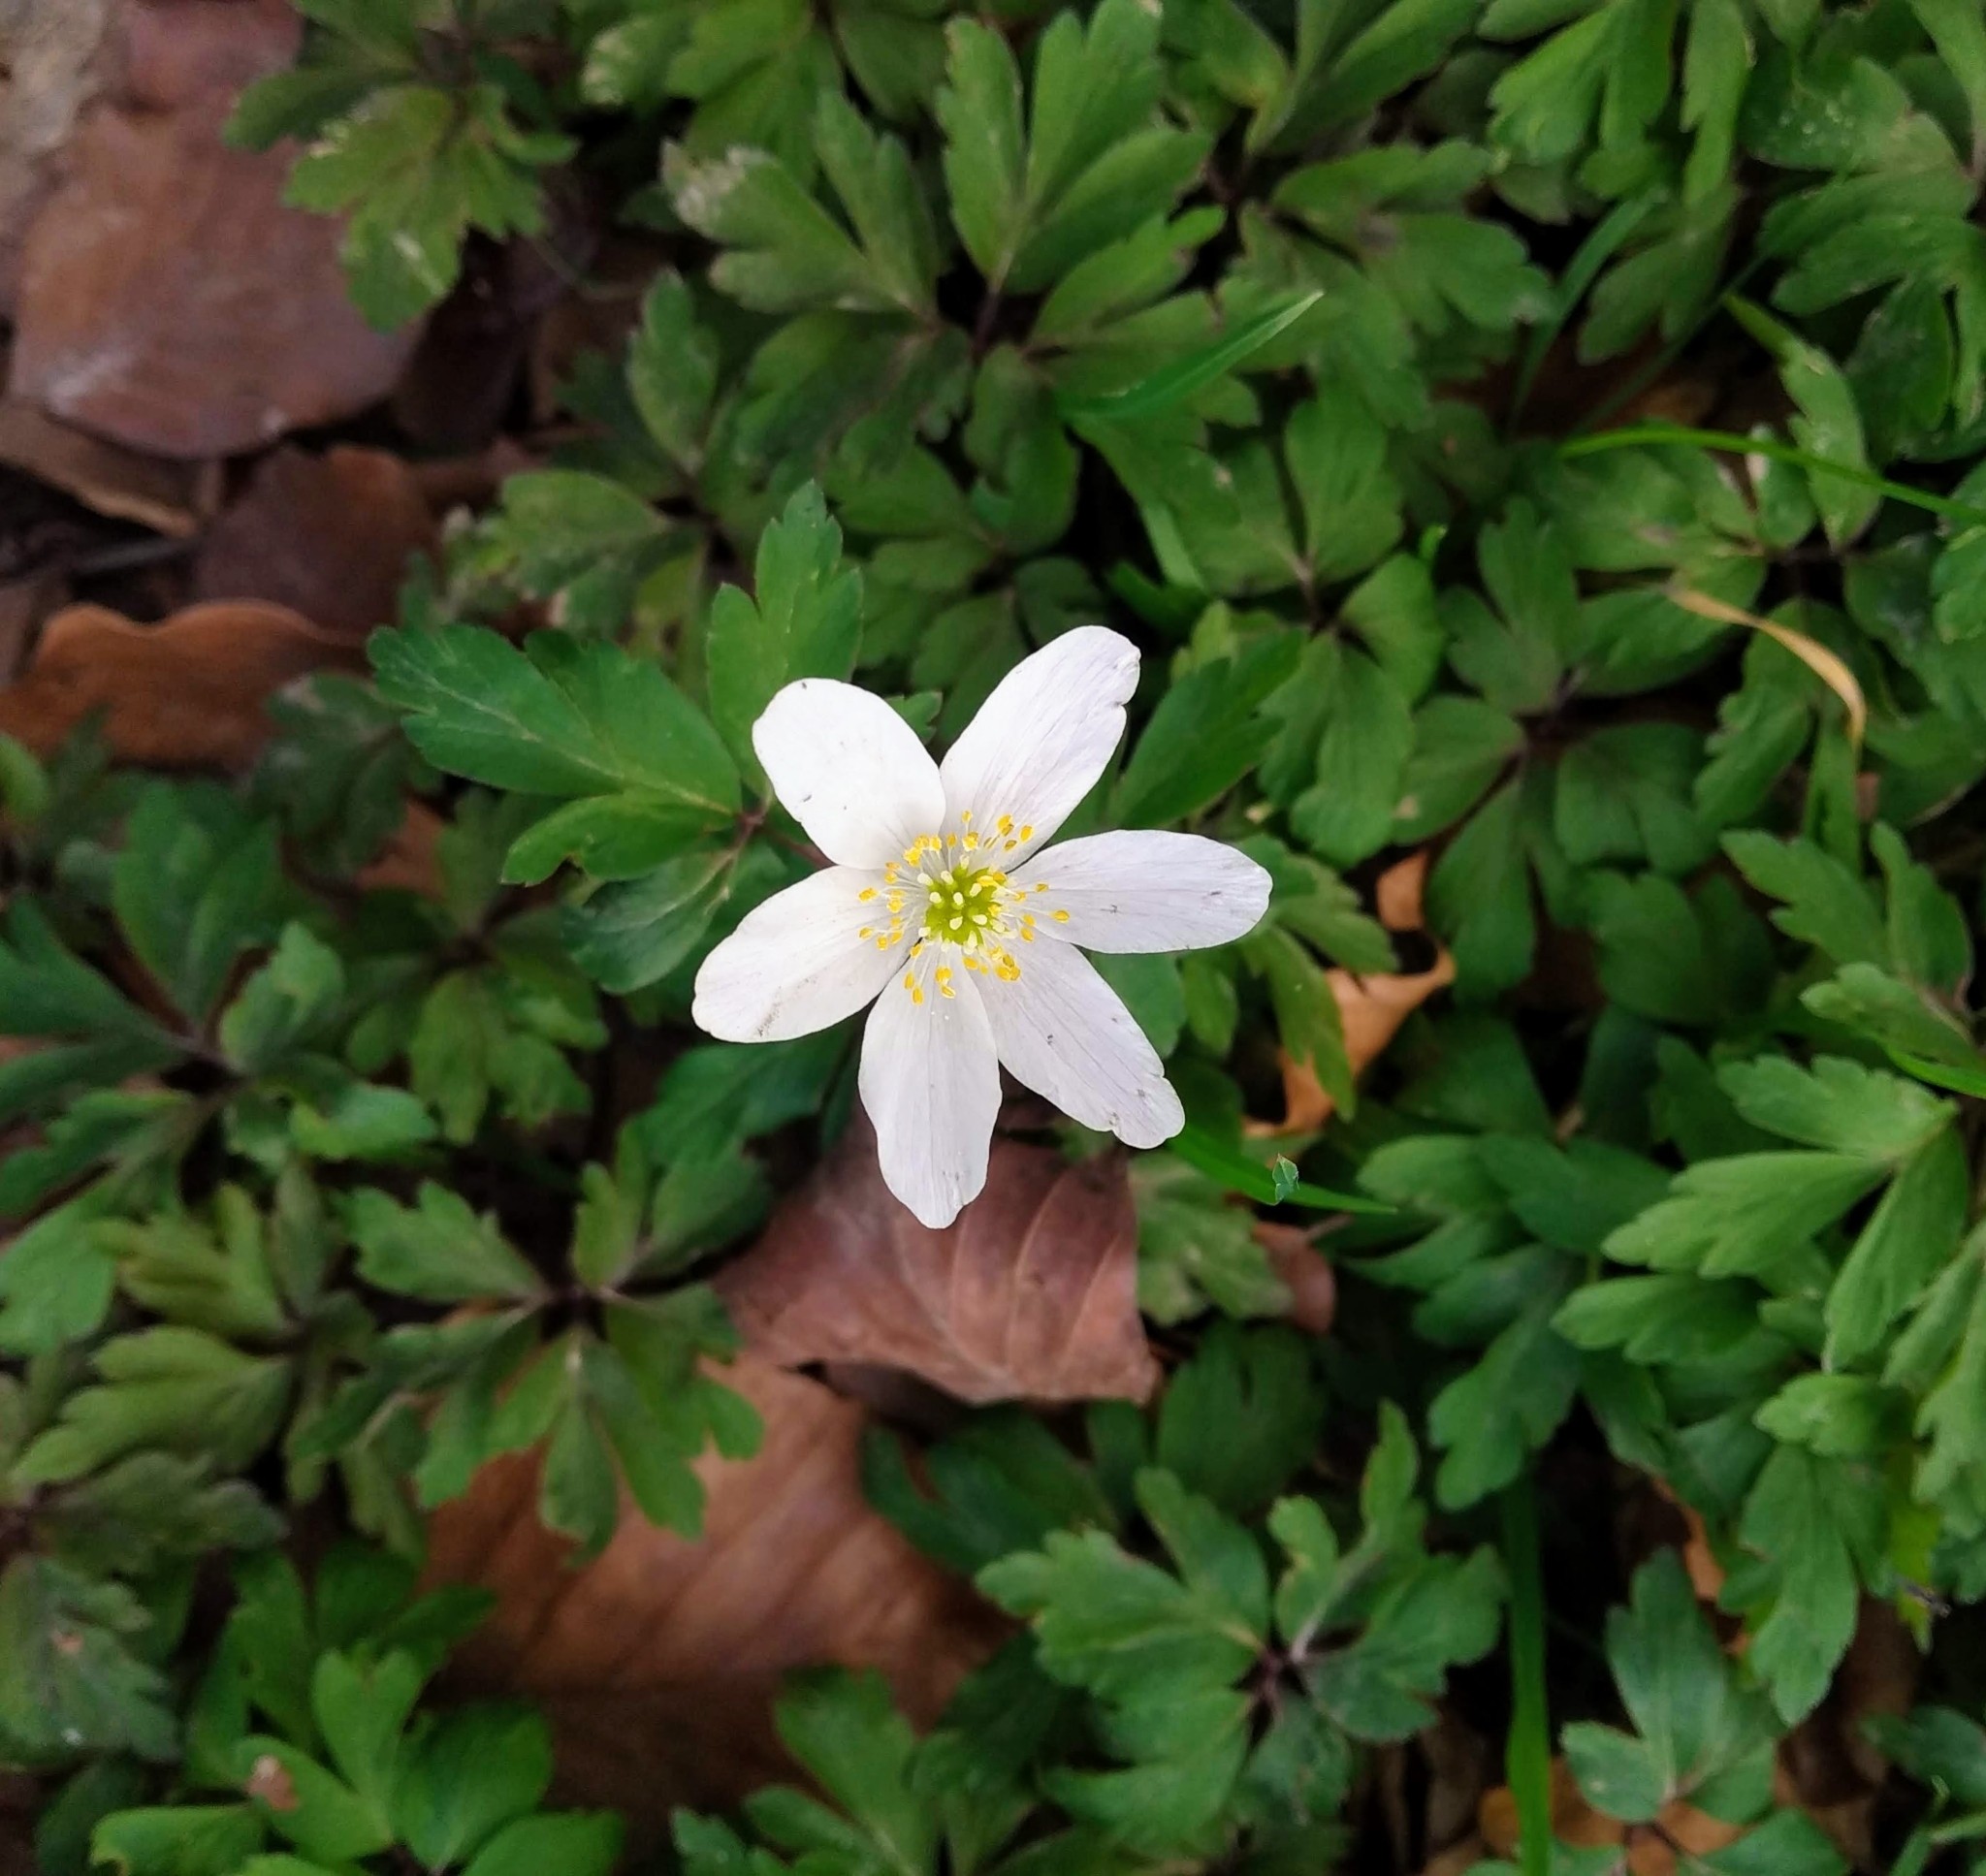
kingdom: Plantae
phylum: Tracheophyta
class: Magnoliopsida
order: Ranunculales
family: Ranunculaceae
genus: Anemone
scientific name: Anemone nemorosa
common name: Wood anemone
